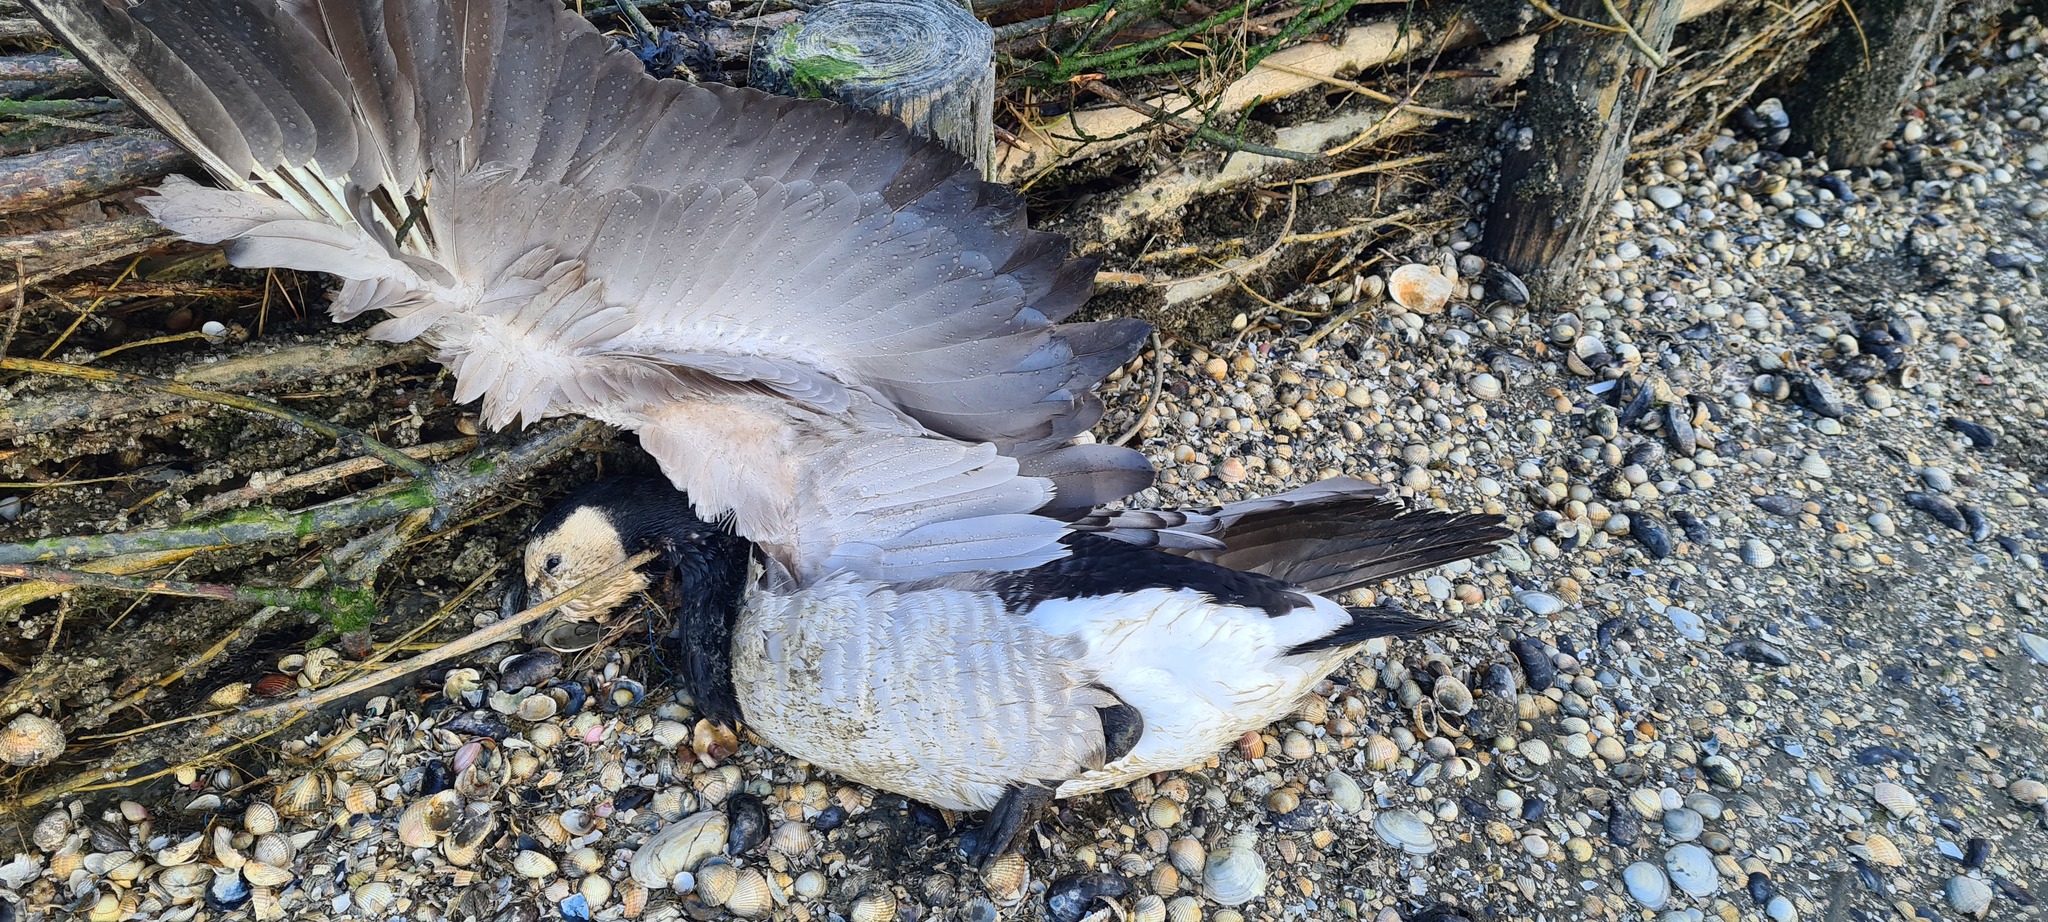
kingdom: Animalia
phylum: Chordata
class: Aves
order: Anseriformes
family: Anatidae
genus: Branta
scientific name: Branta leucopsis
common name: Barnacle goose
